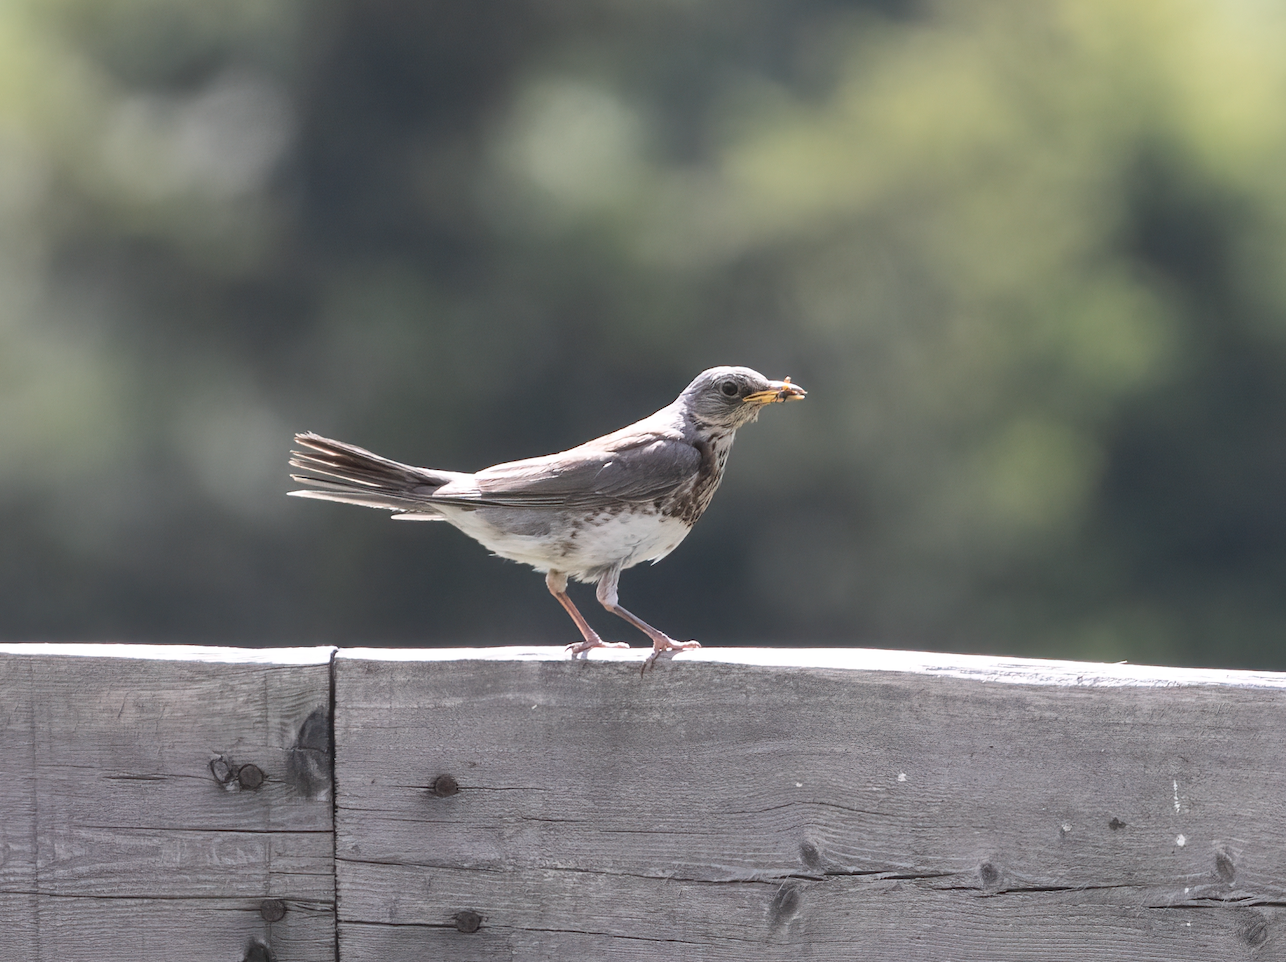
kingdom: Animalia
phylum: Chordata
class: Aves
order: Passeriformes
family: Turdidae
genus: Turdus
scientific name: Turdus pilaris
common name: Fieldfare
